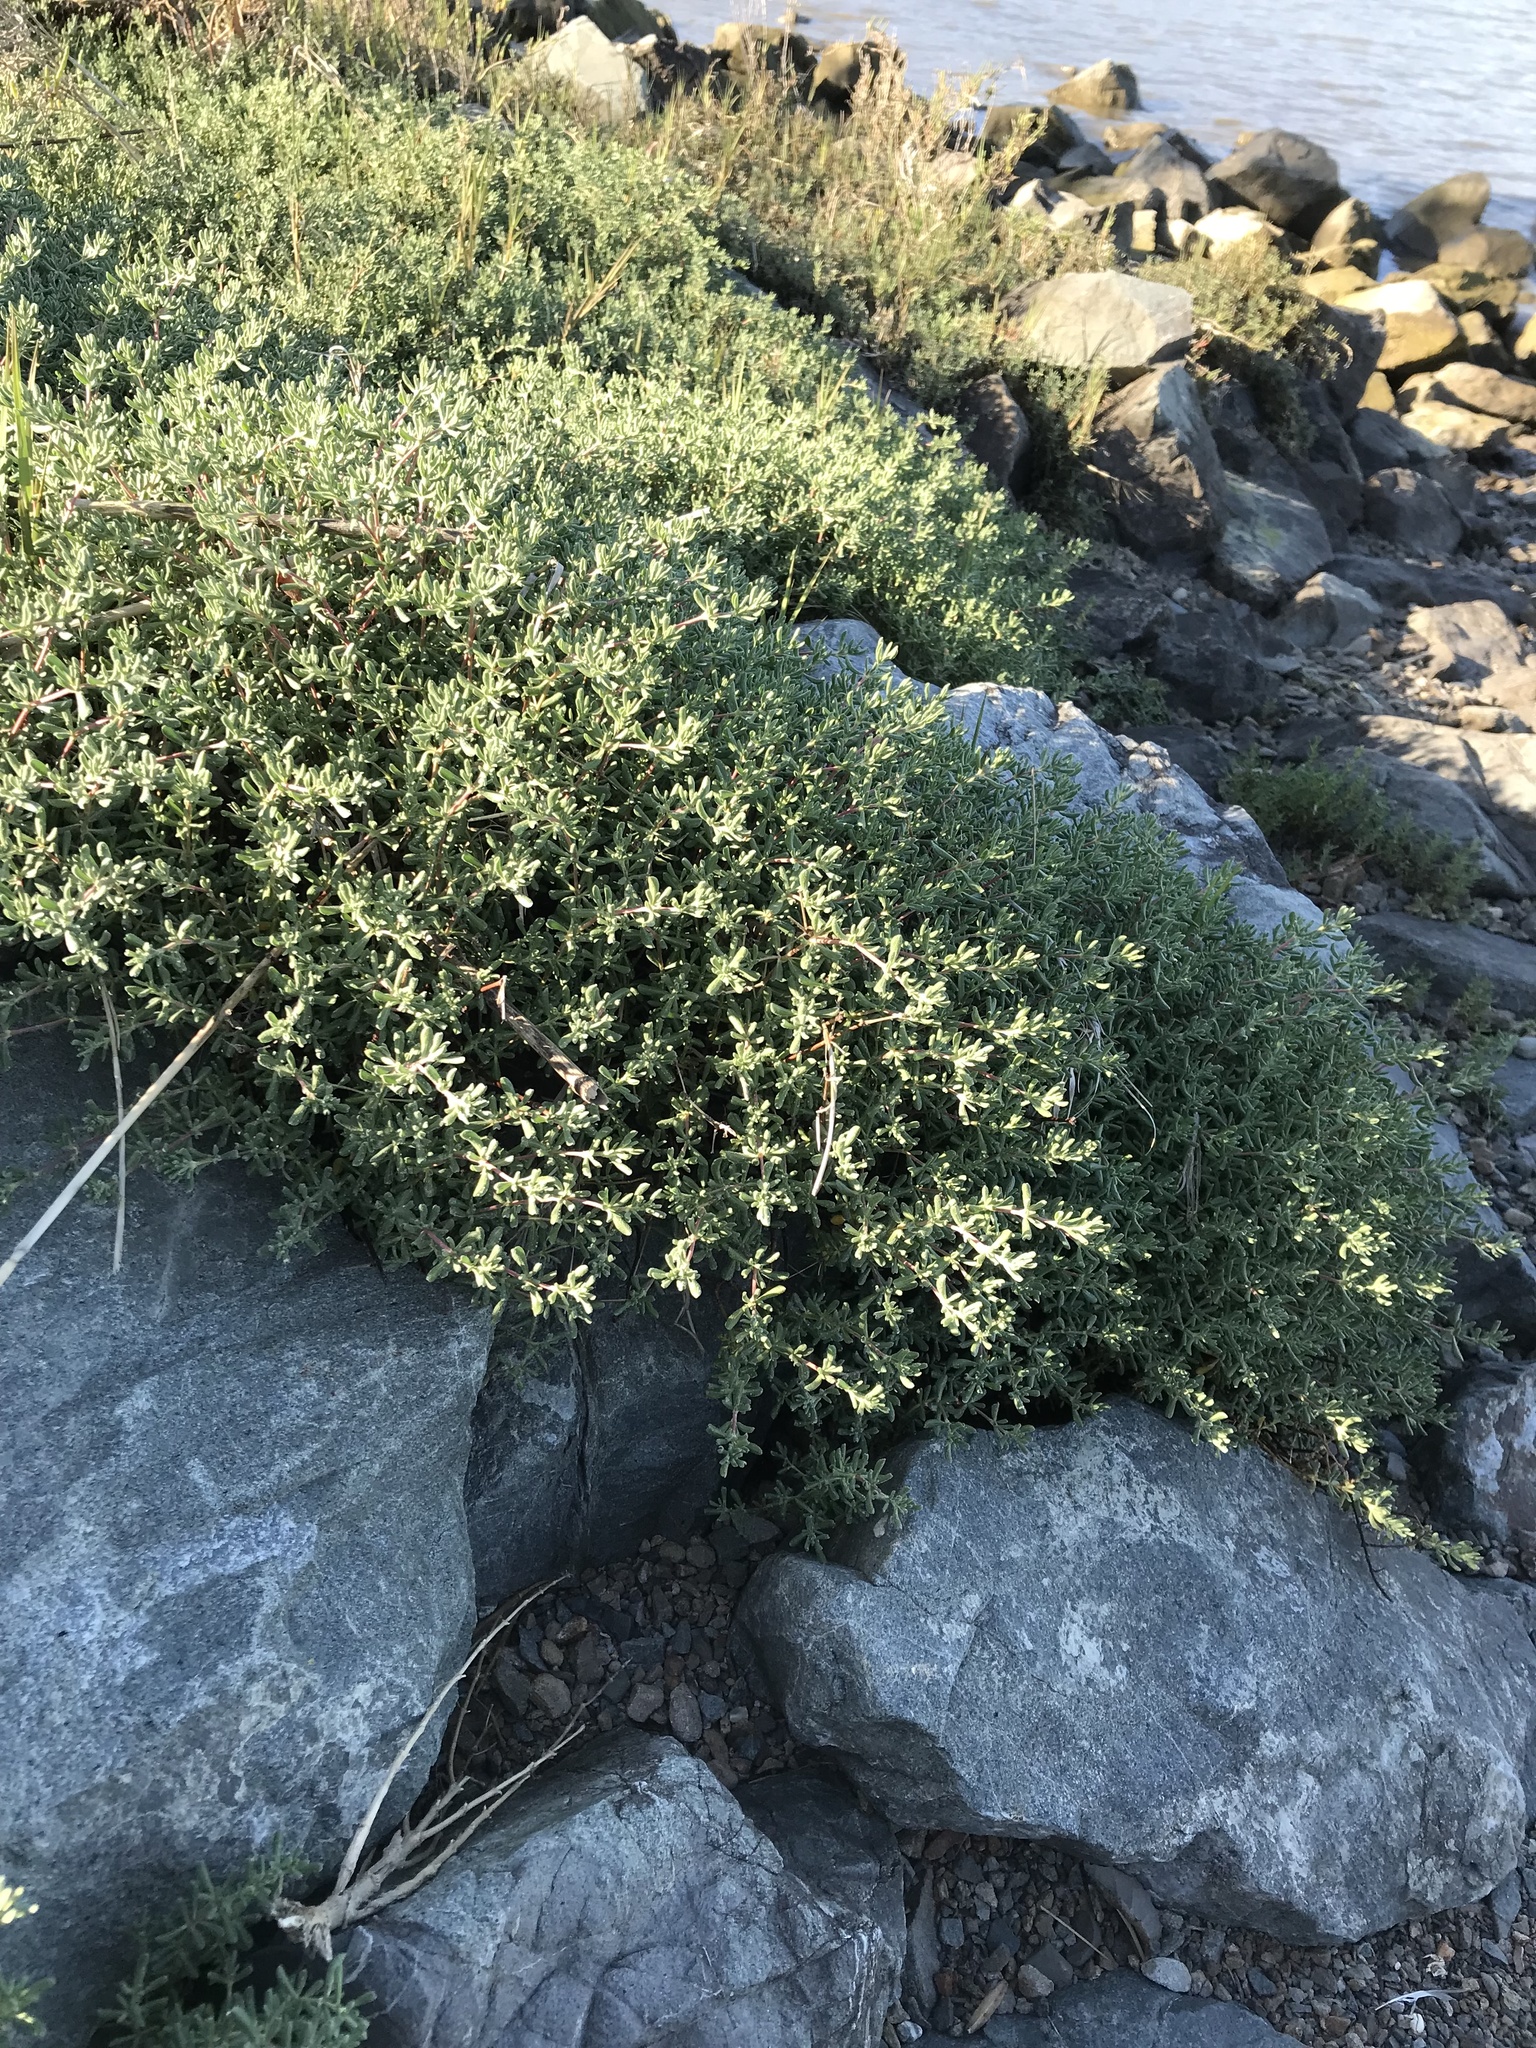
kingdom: Plantae
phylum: Tracheophyta
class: Magnoliopsida
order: Caryophyllales
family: Frankeniaceae
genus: Frankenia
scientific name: Frankenia salina
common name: Alkali seaheath
